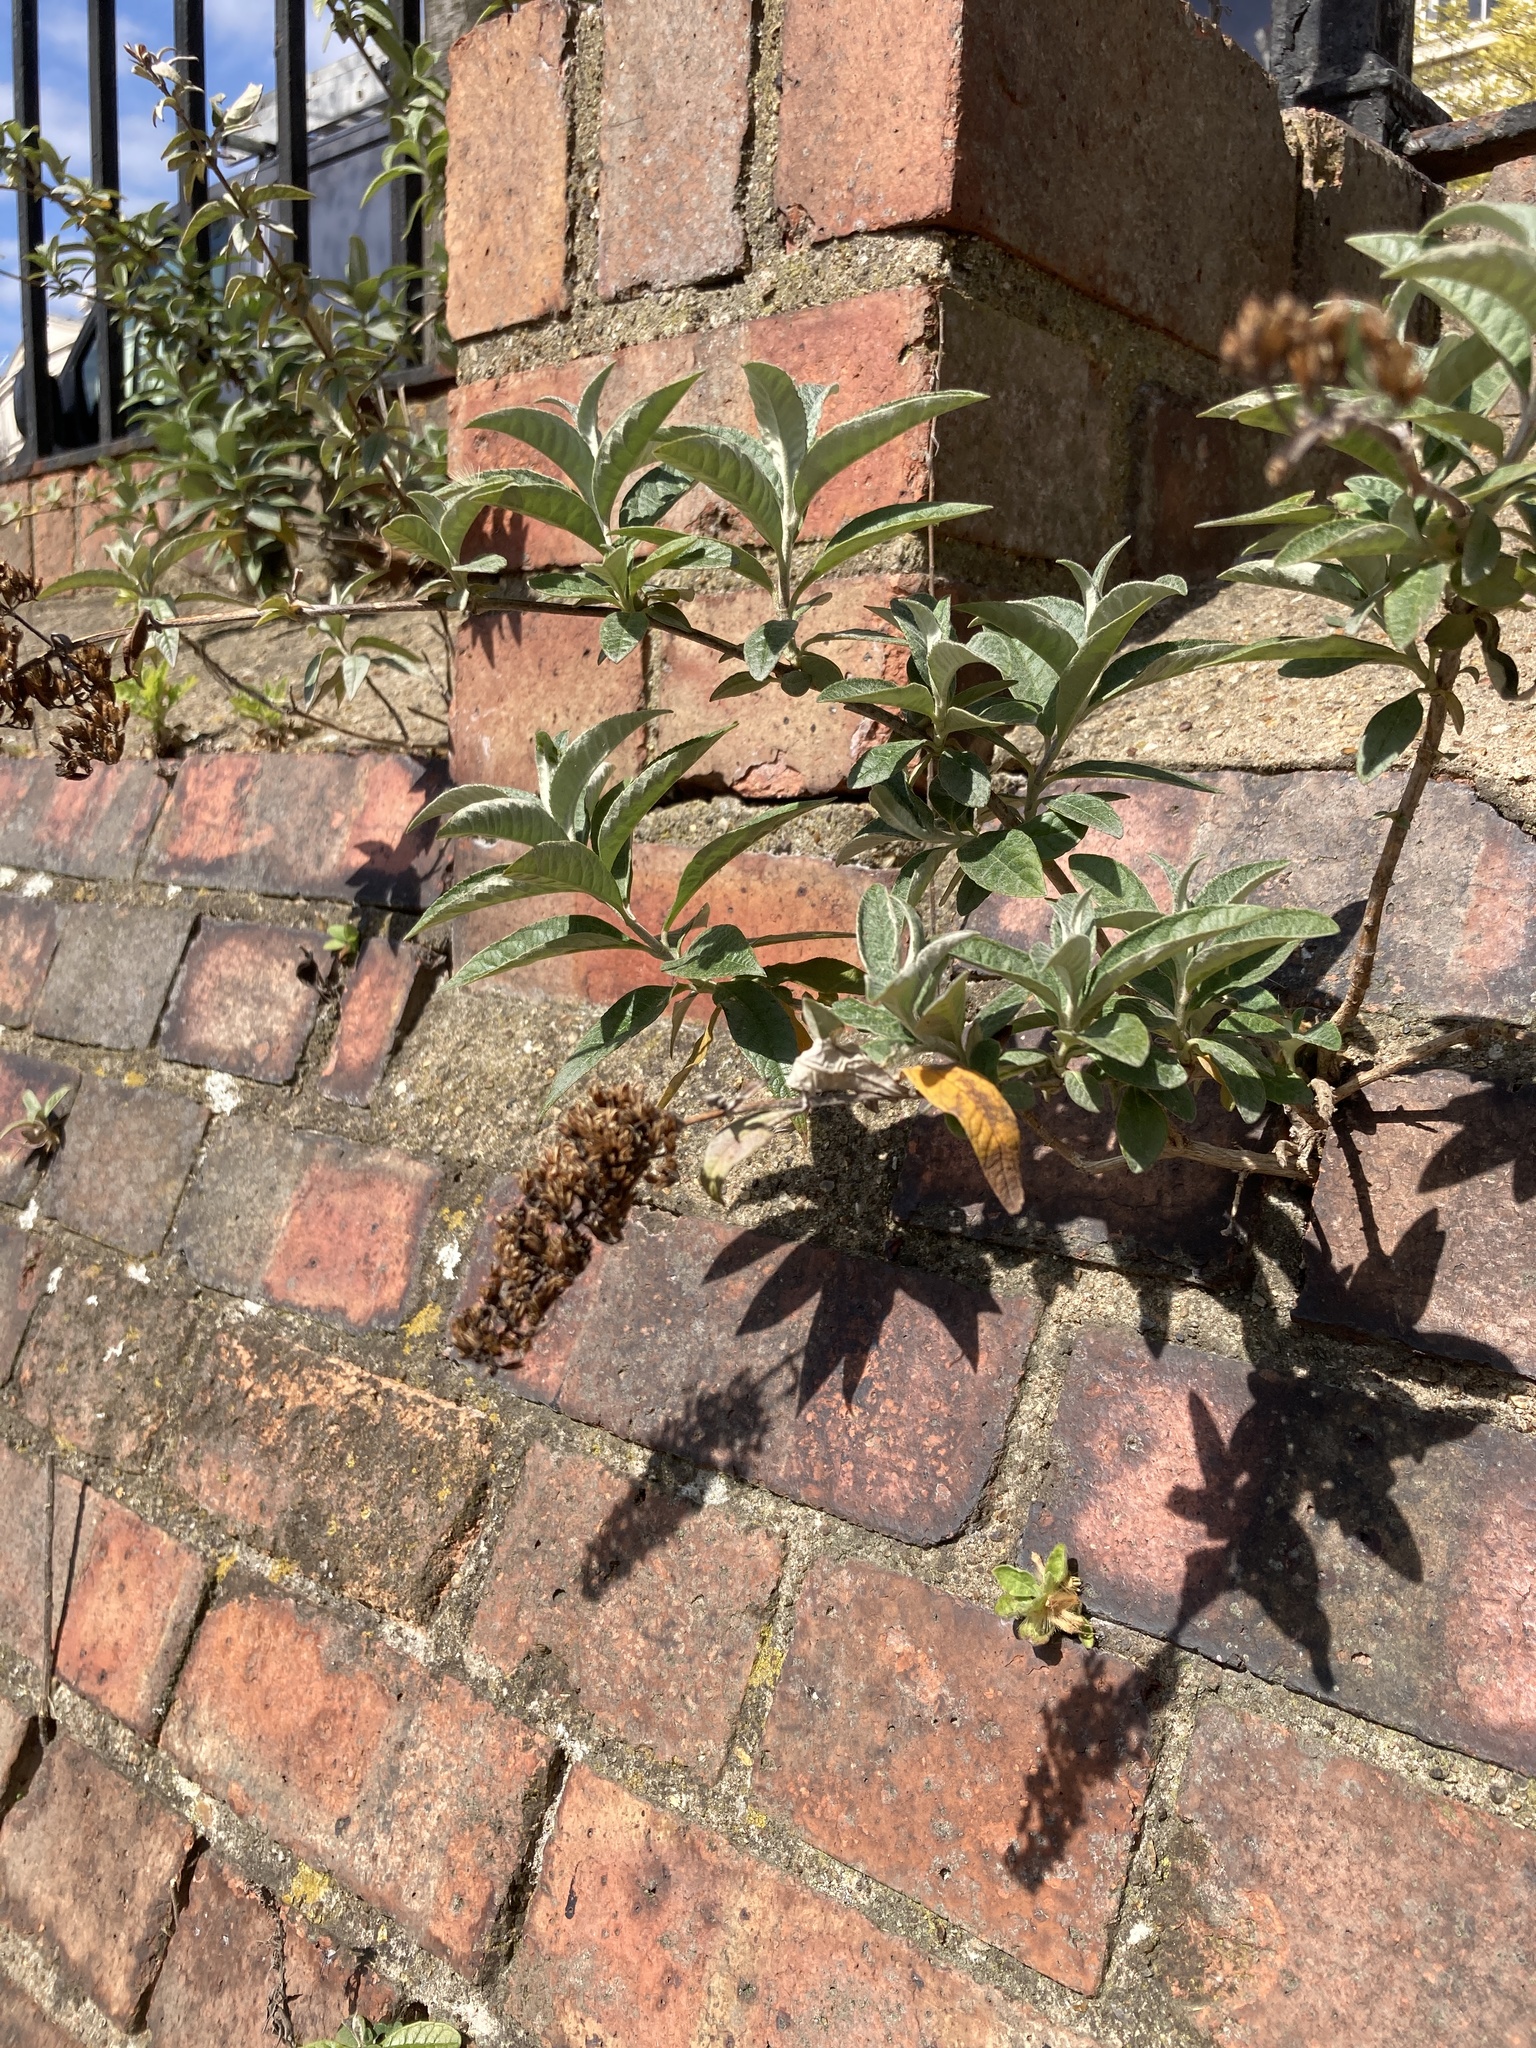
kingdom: Plantae
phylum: Tracheophyta
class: Magnoliopsida
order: Lamiales
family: Scrophulariaceae
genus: Buddleja
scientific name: Buddleja davidii
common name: Butterfly-bush
